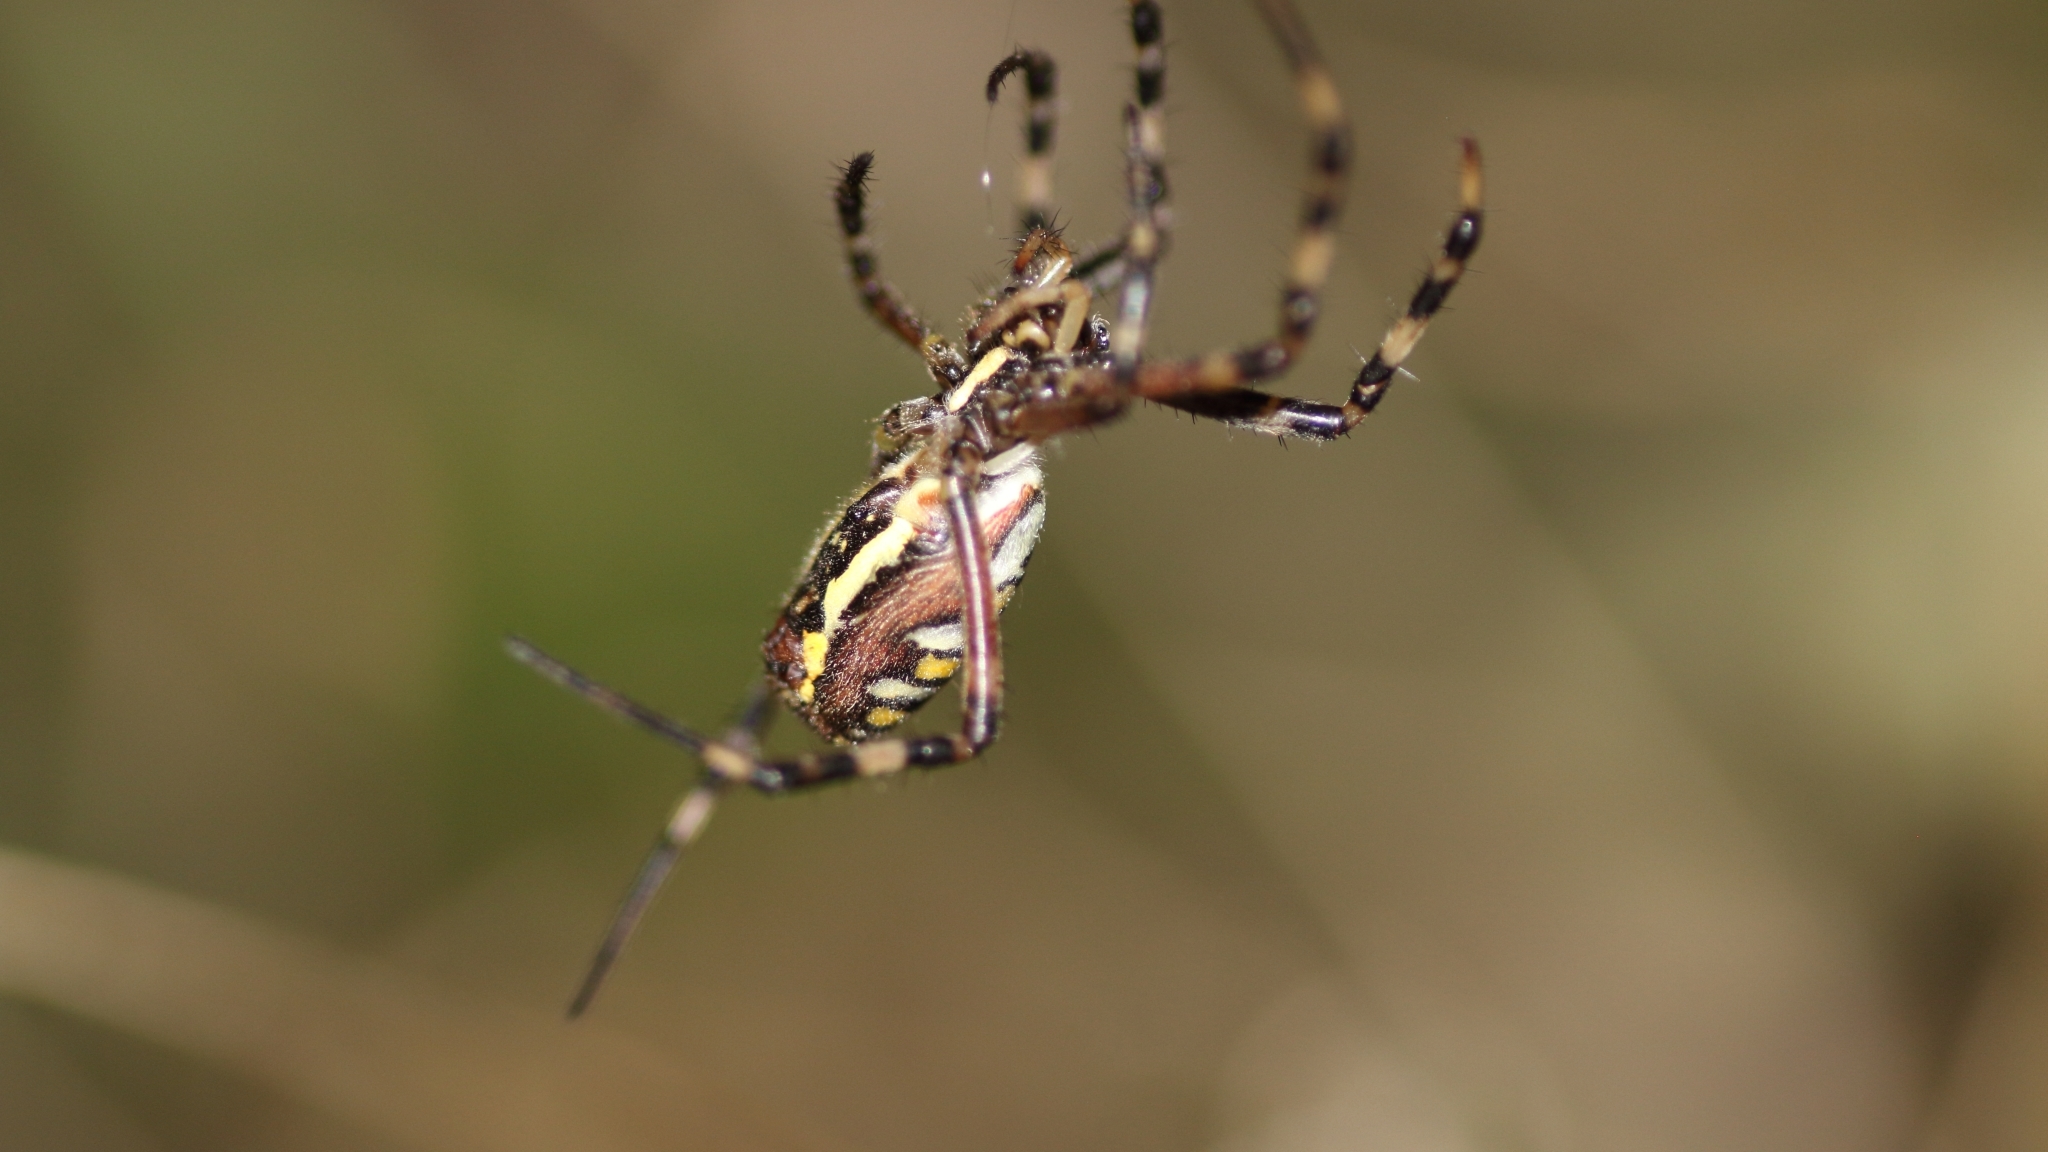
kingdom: Animalia
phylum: Arthropoda
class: Arachnida
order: Araneae
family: Araneidae
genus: Argiope
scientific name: Argiope bruennichi
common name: Wasp spider
